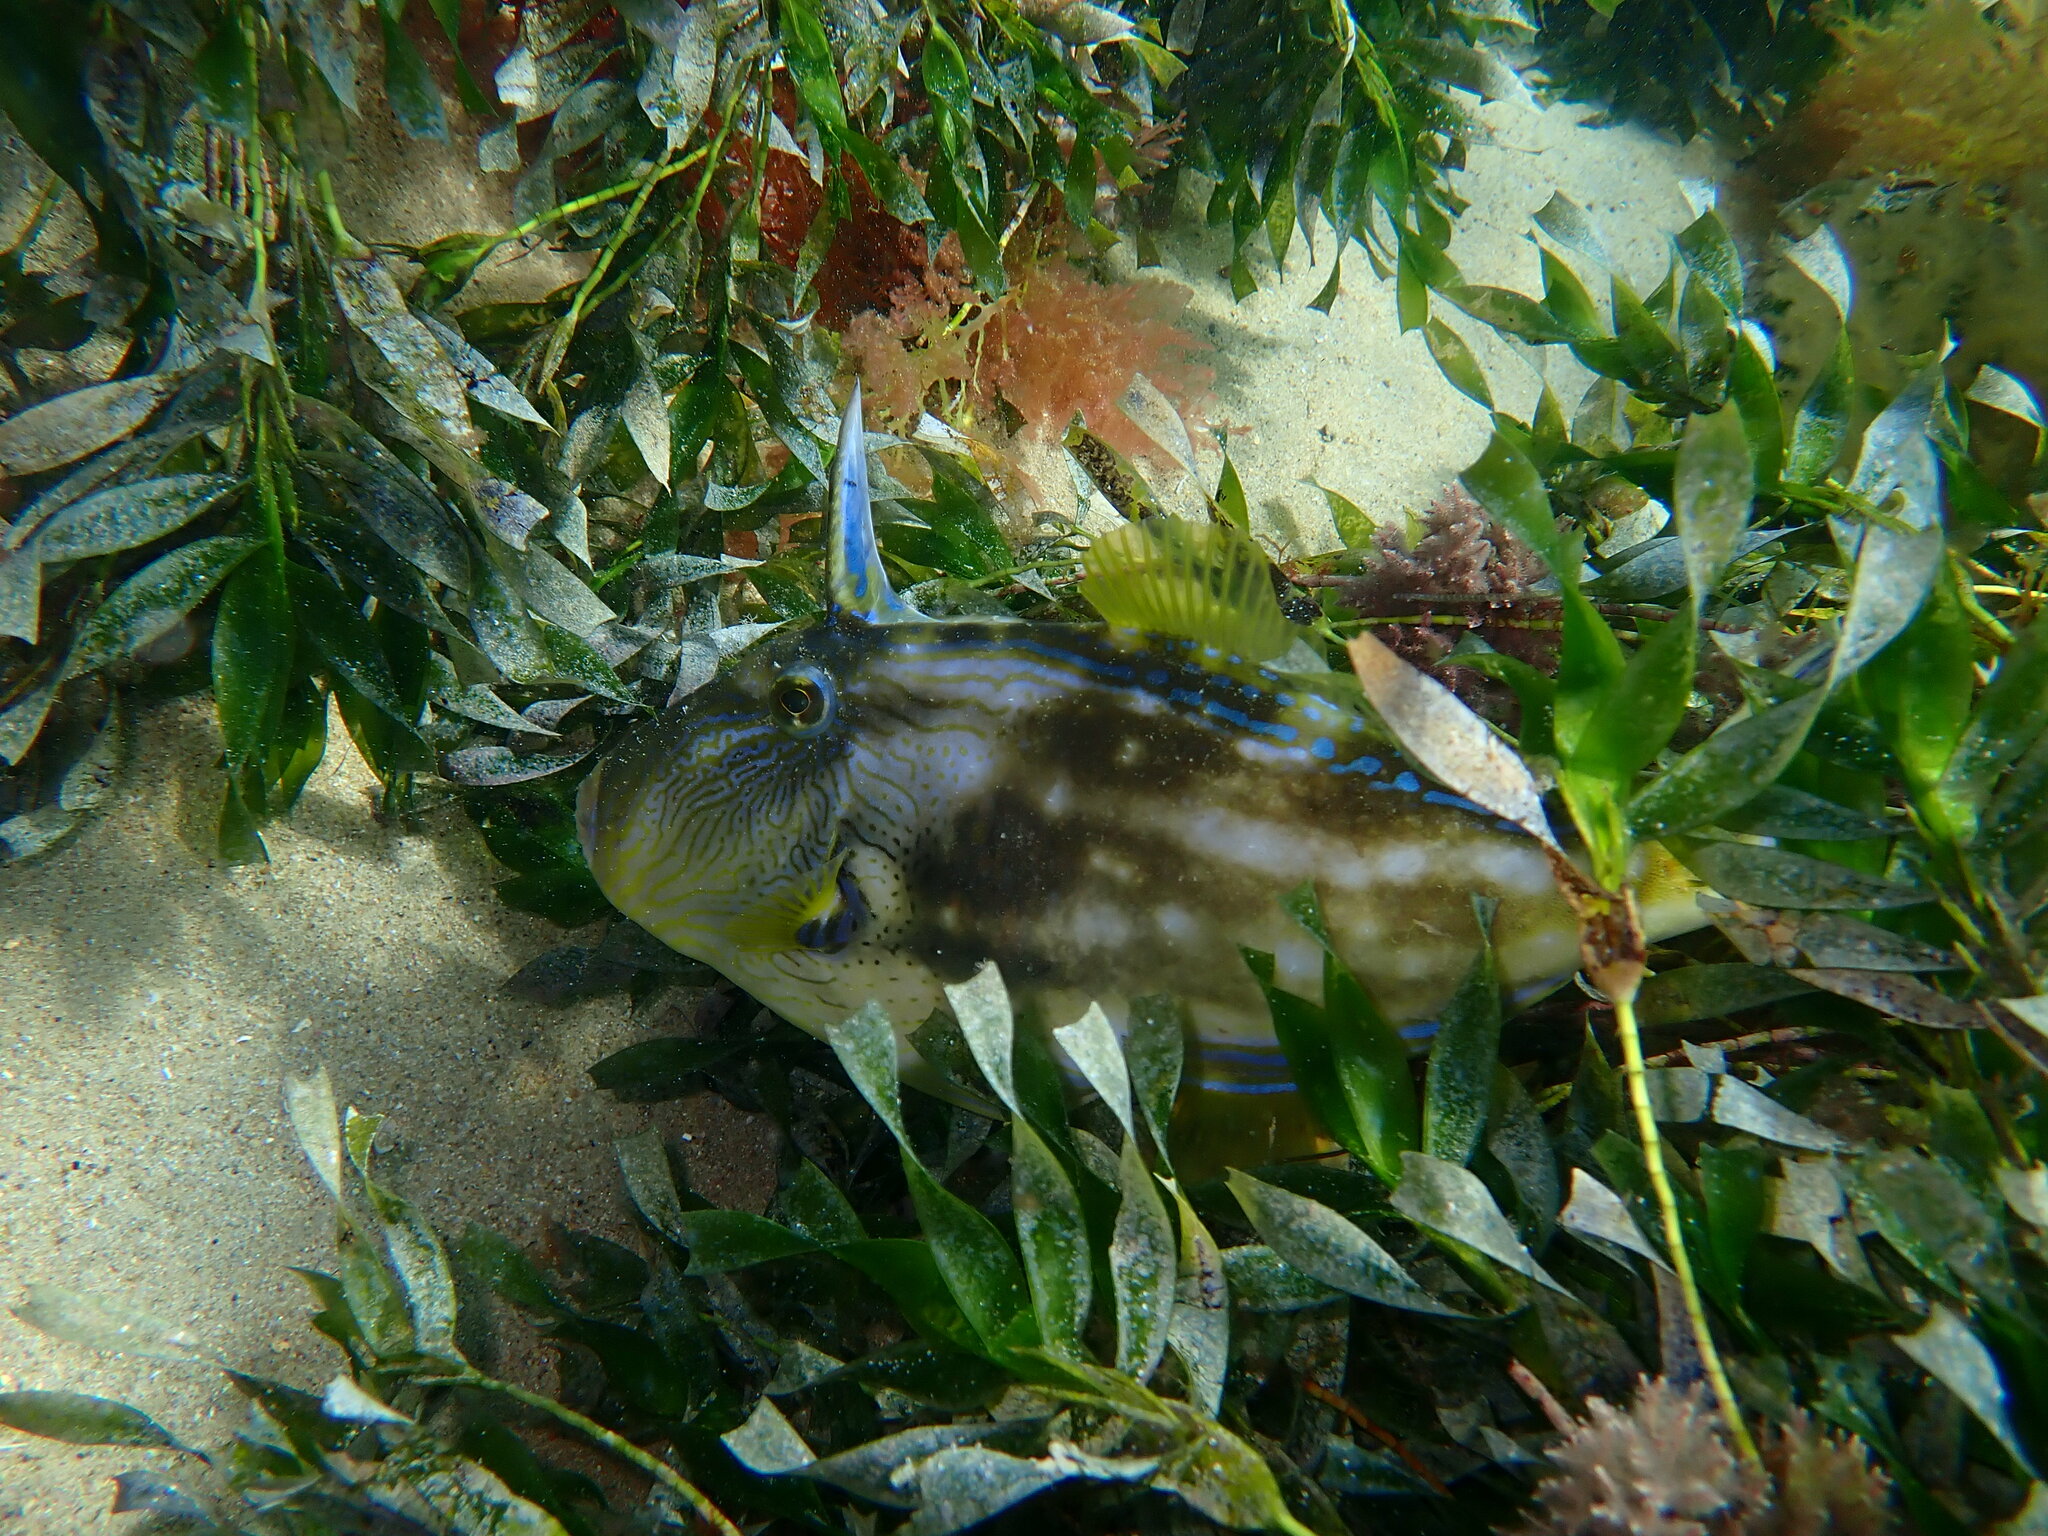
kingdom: Animalia
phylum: Chordata
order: Tetraodontiformes
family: Monacanthidae
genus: Meuschenia
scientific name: Meuschenia freycineti
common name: Freycinet's leatherjacket
